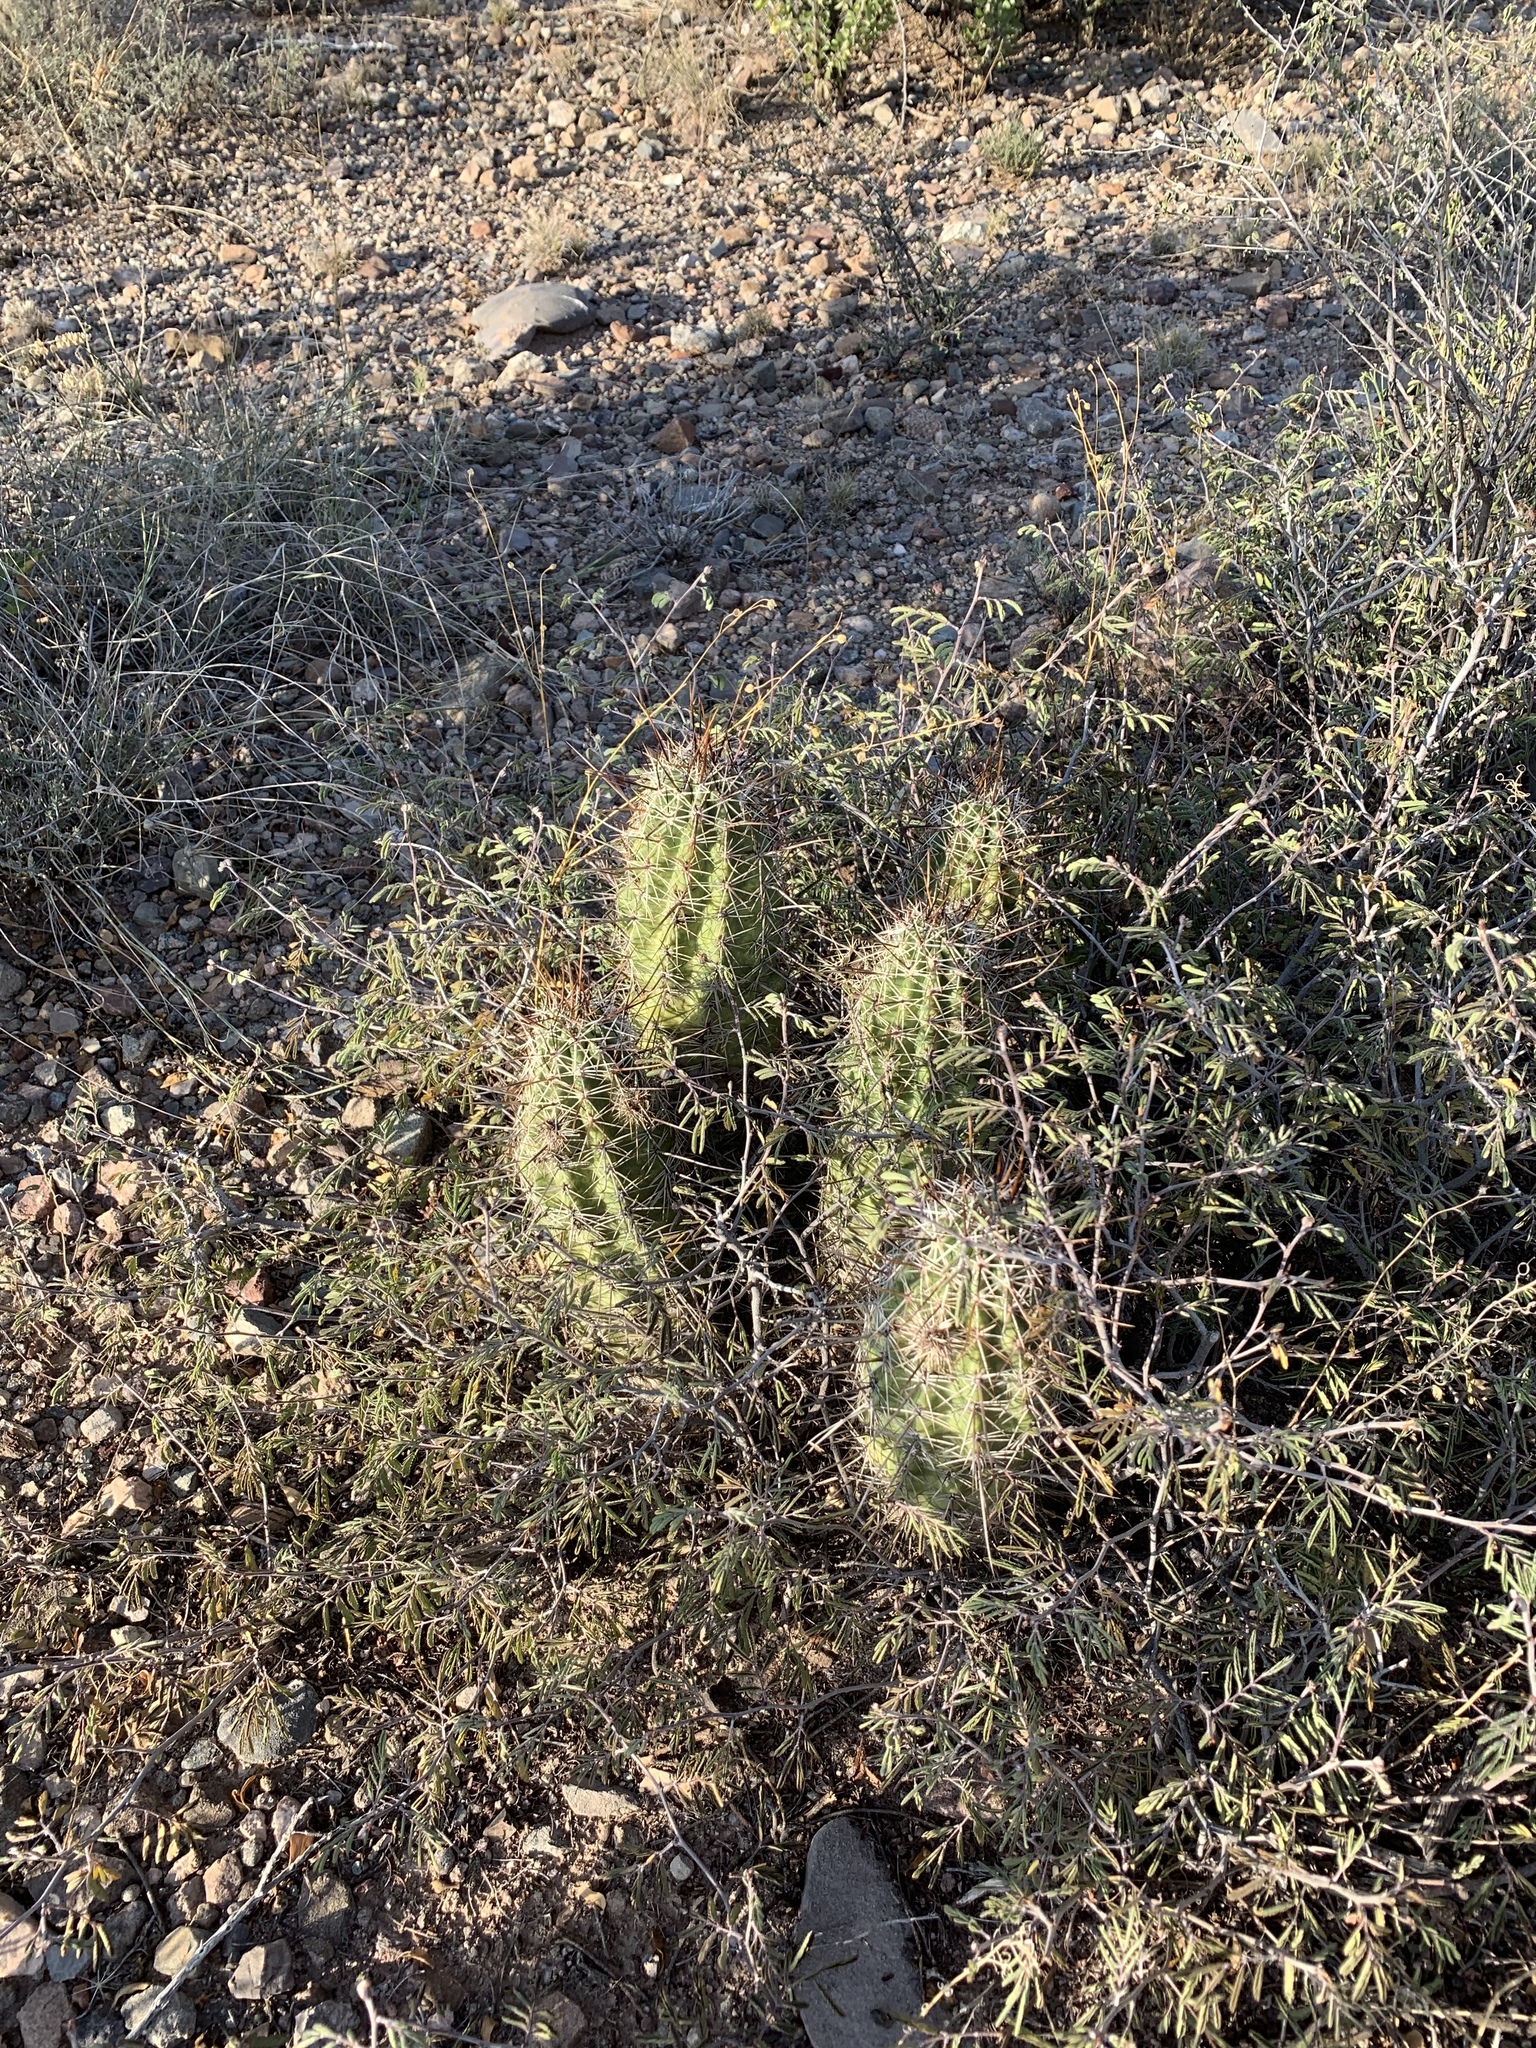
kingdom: Plantae
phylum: Tracheophyta
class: Magnoliopsida
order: Caryophyllales
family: Cactaceae
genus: Echinocereus
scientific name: Echinocereus fasciculatus
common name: Bundle hedgehog
